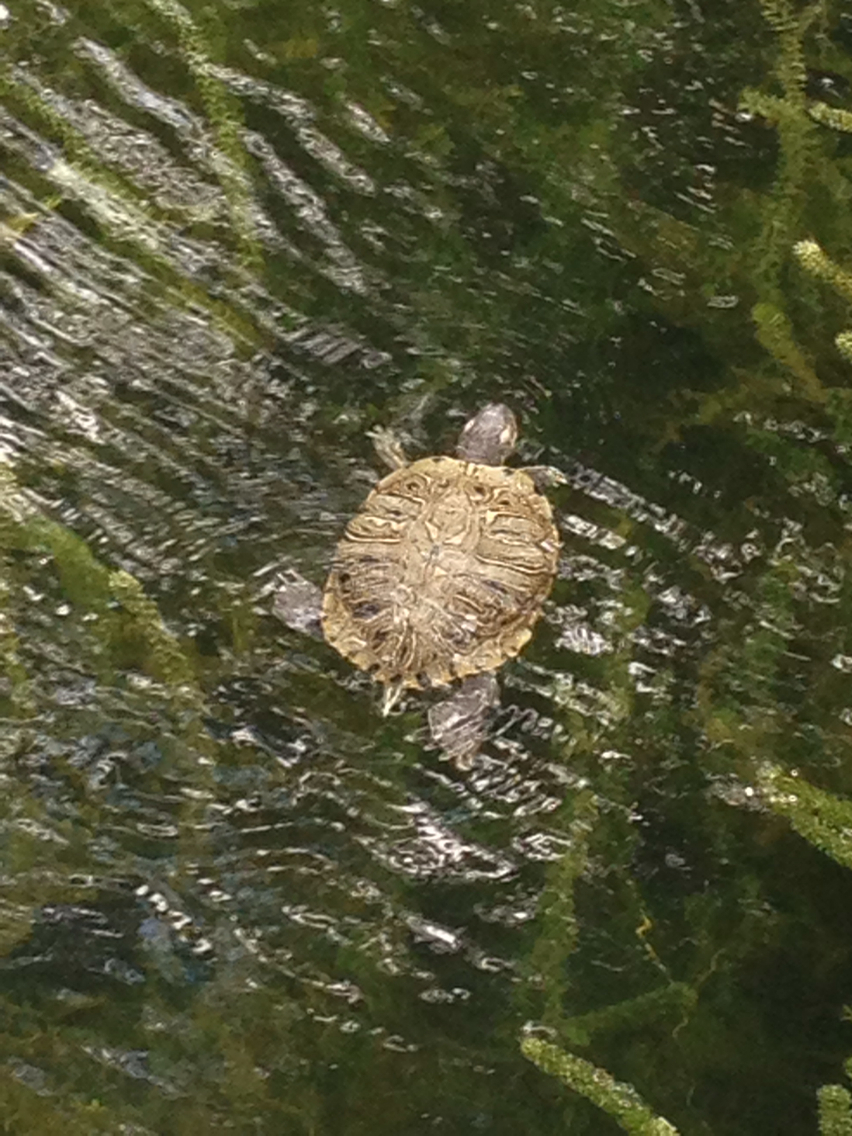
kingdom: Animalia
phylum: Chordata
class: Testudines
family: Emydidae
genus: Trachemys
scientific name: Trachemys scripta
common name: Slider
